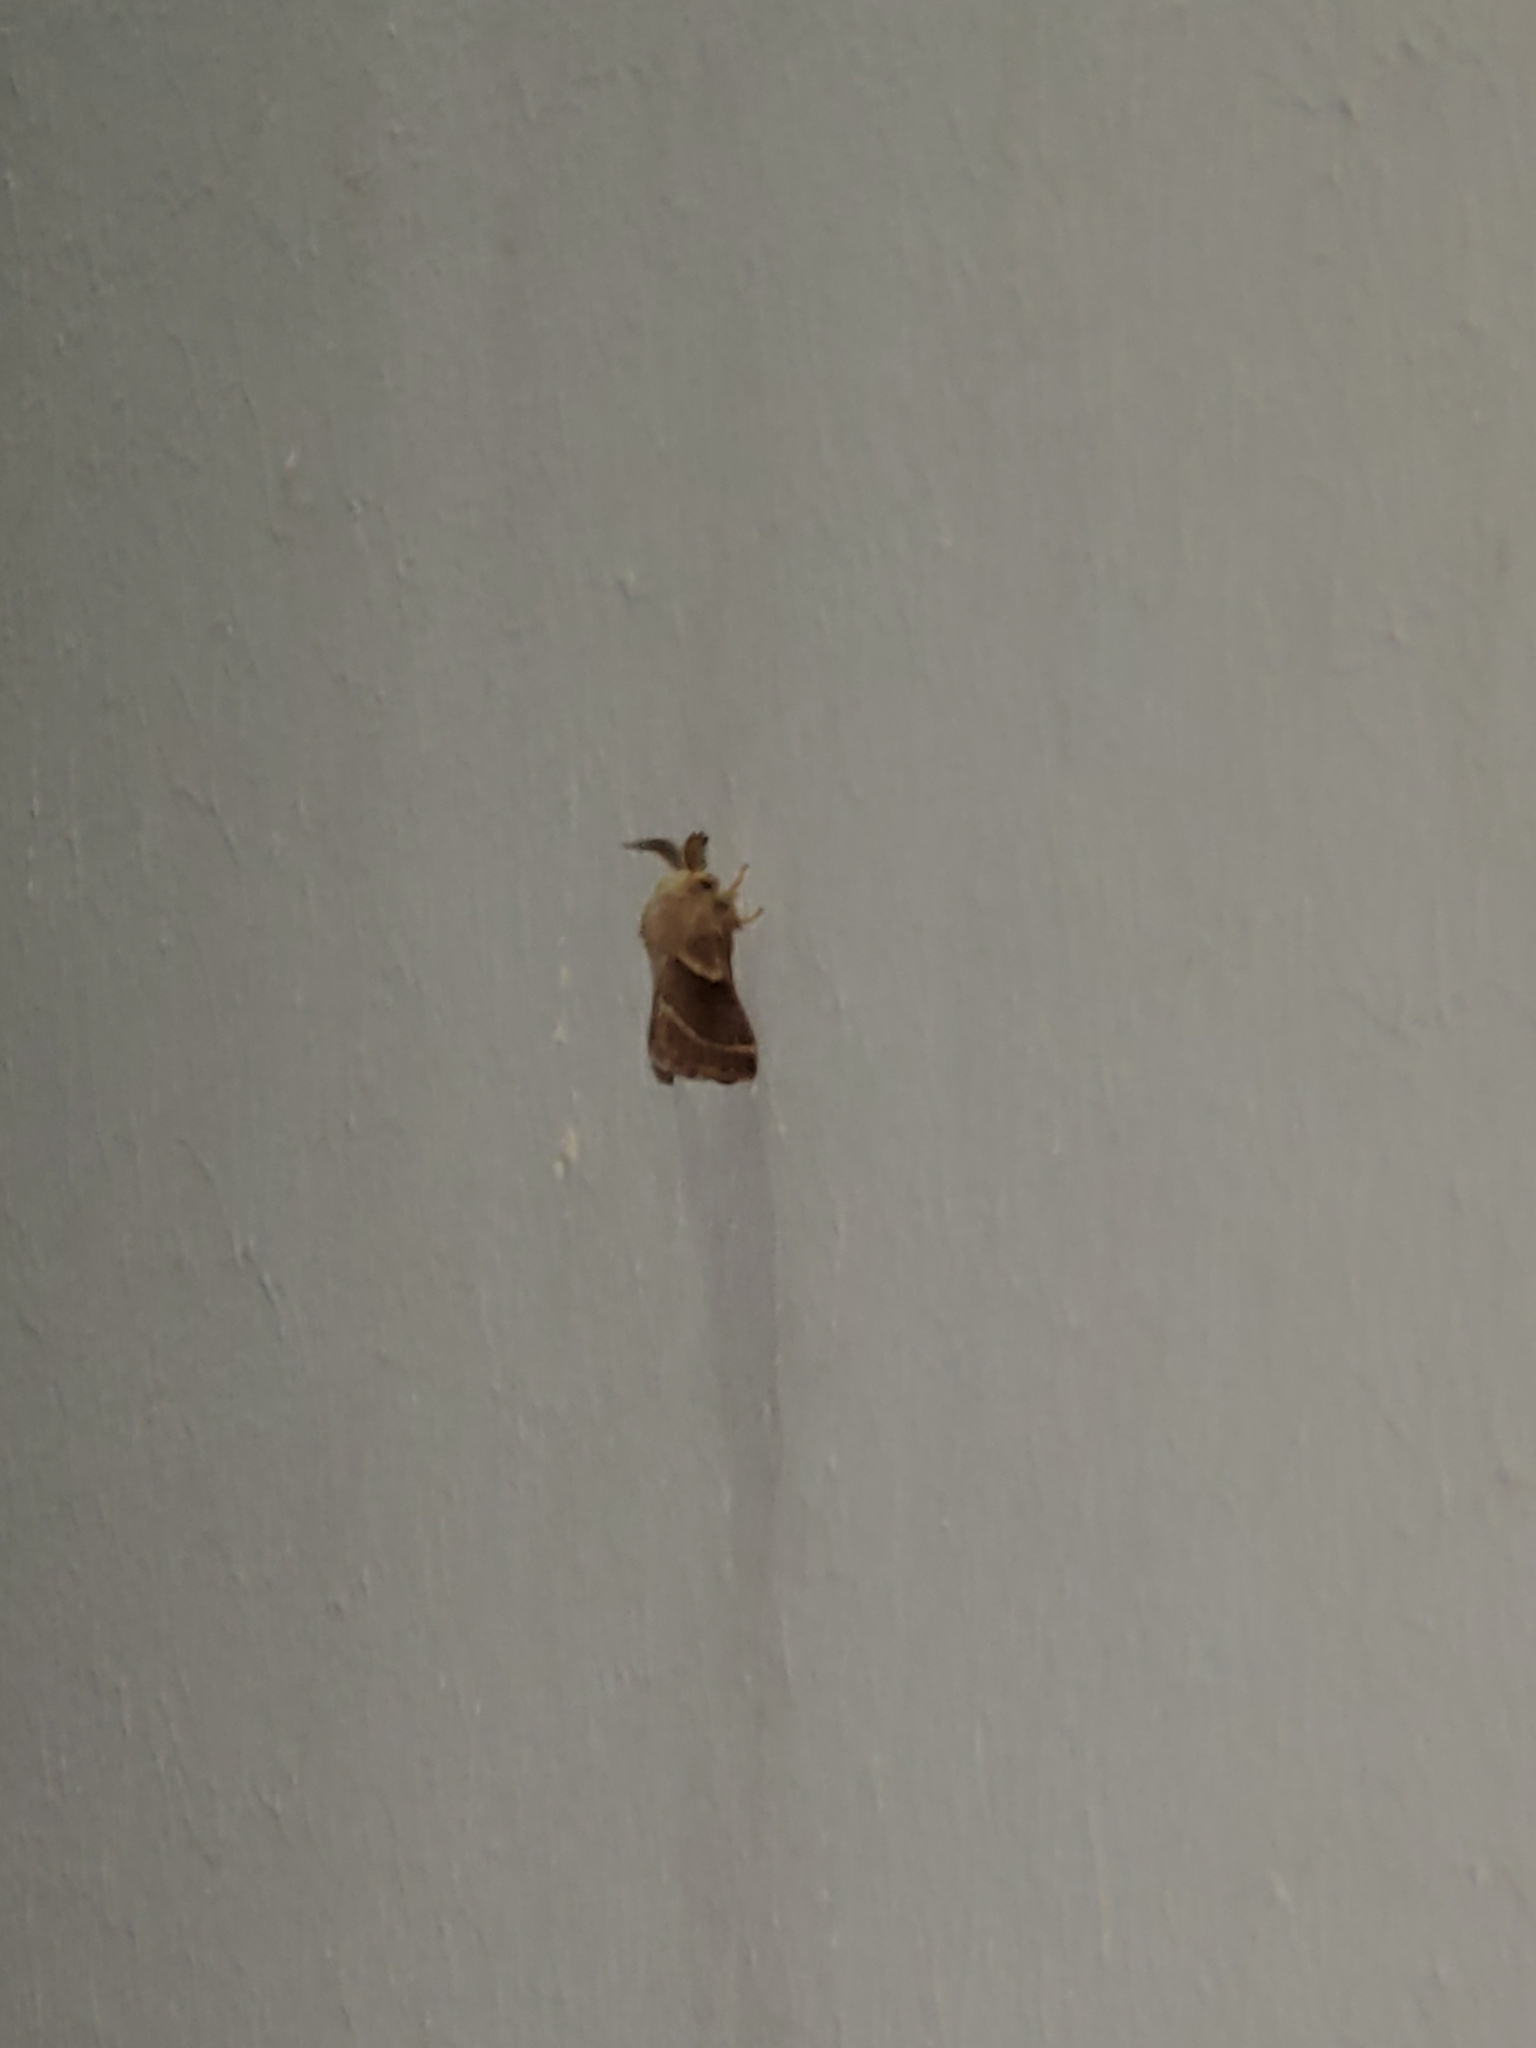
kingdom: Animalia
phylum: Arthropoda
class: Insecta
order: Lepidoptera
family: Lasiocampidae
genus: Malacosoma
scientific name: Malacosoma californica
